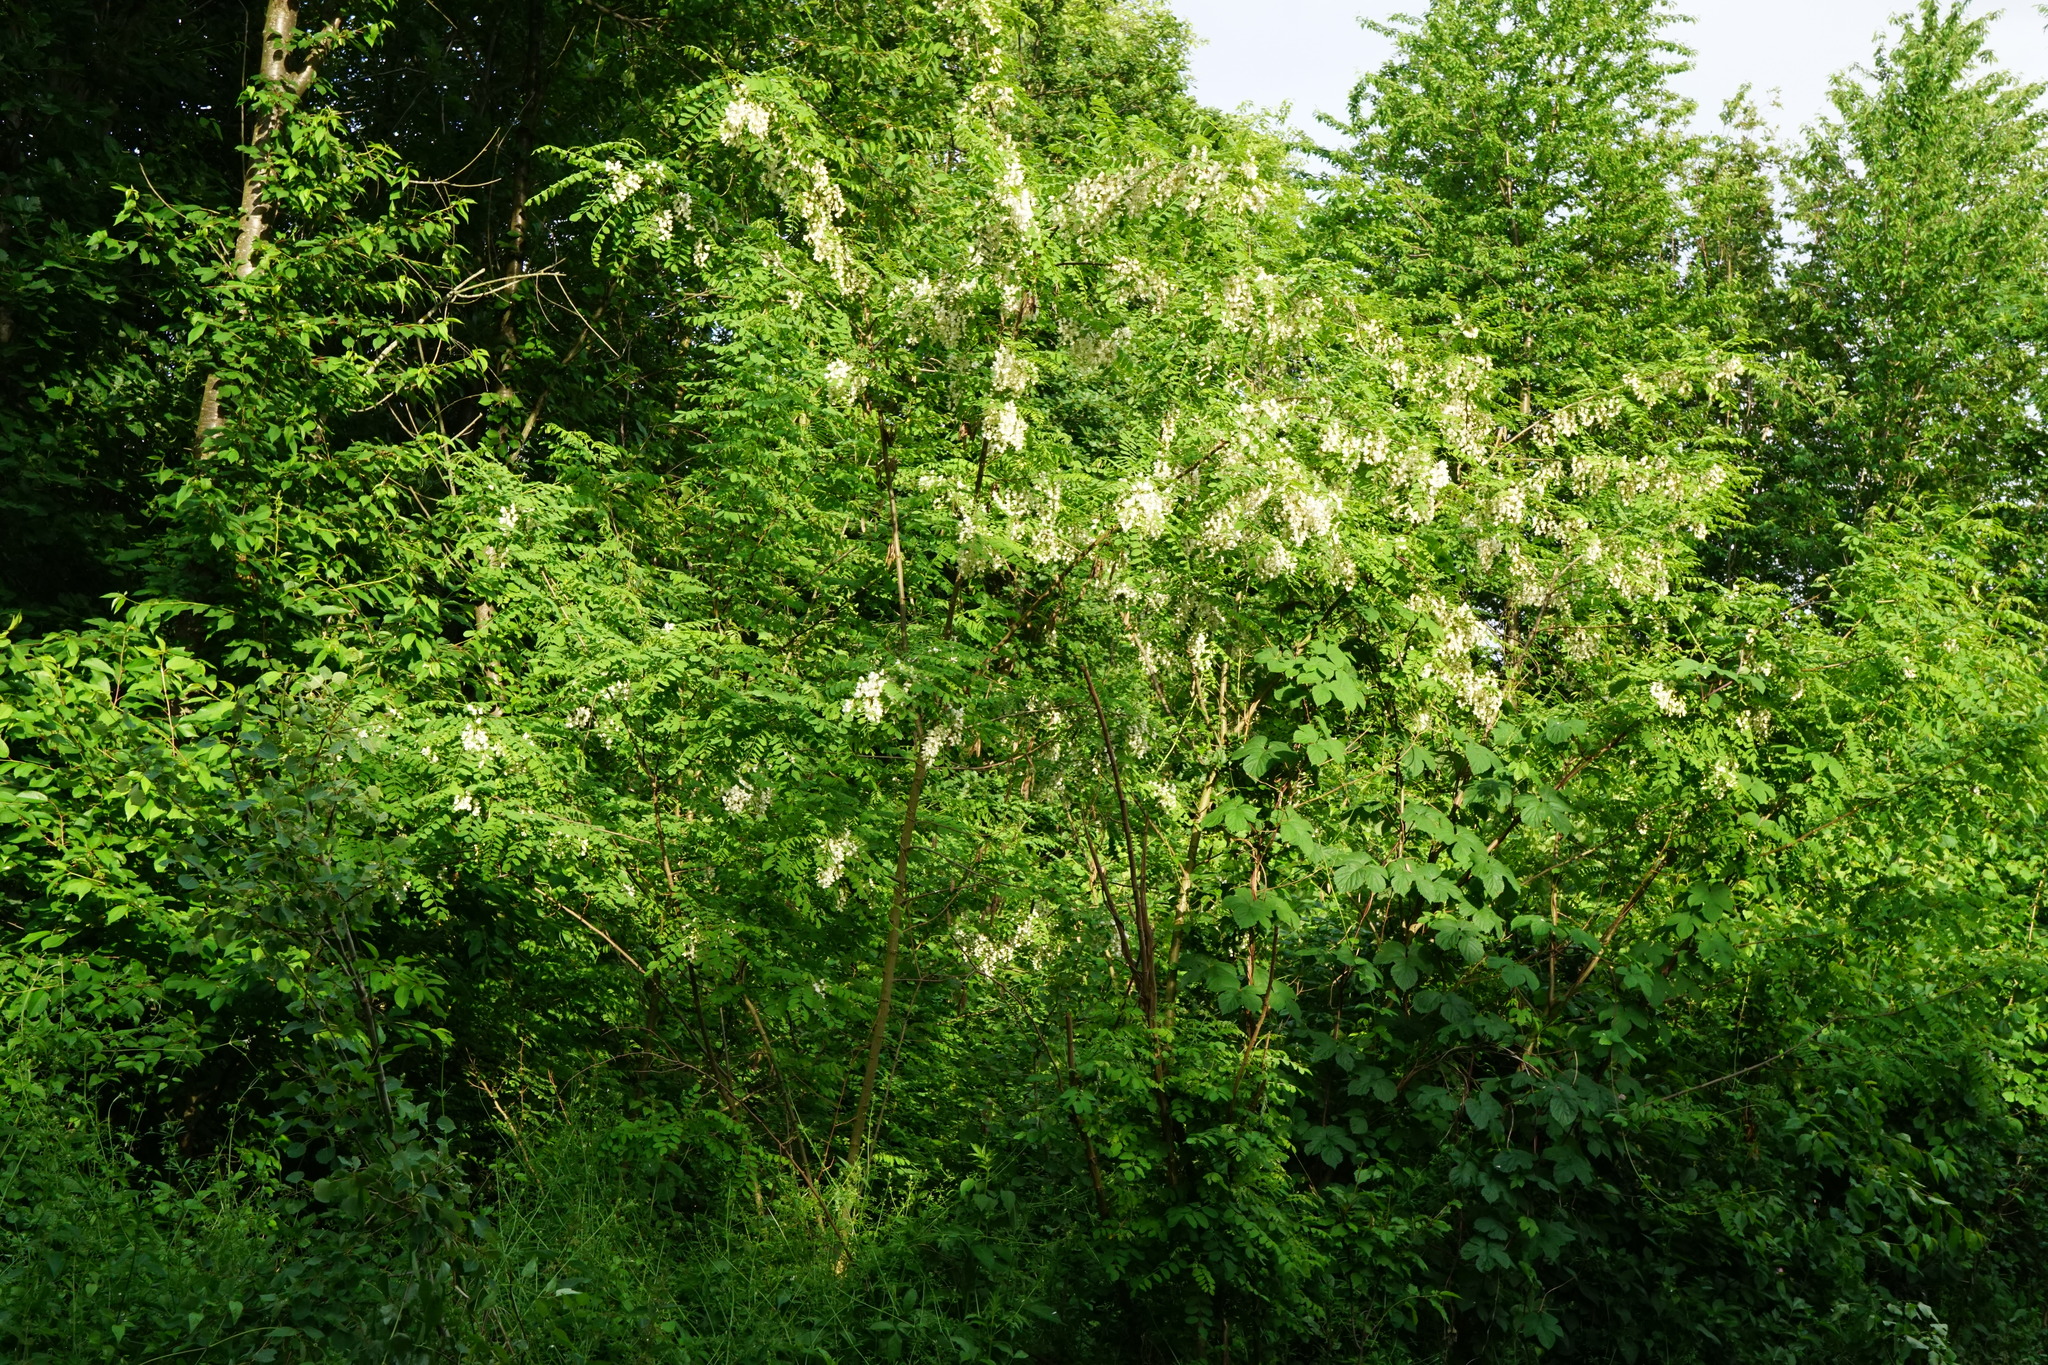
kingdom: Plantae
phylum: Tracheophyta
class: Magnoliopsida
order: Fabales
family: Fabaceae
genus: Robinia
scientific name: Robinia pseudoacacia
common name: Black locust
